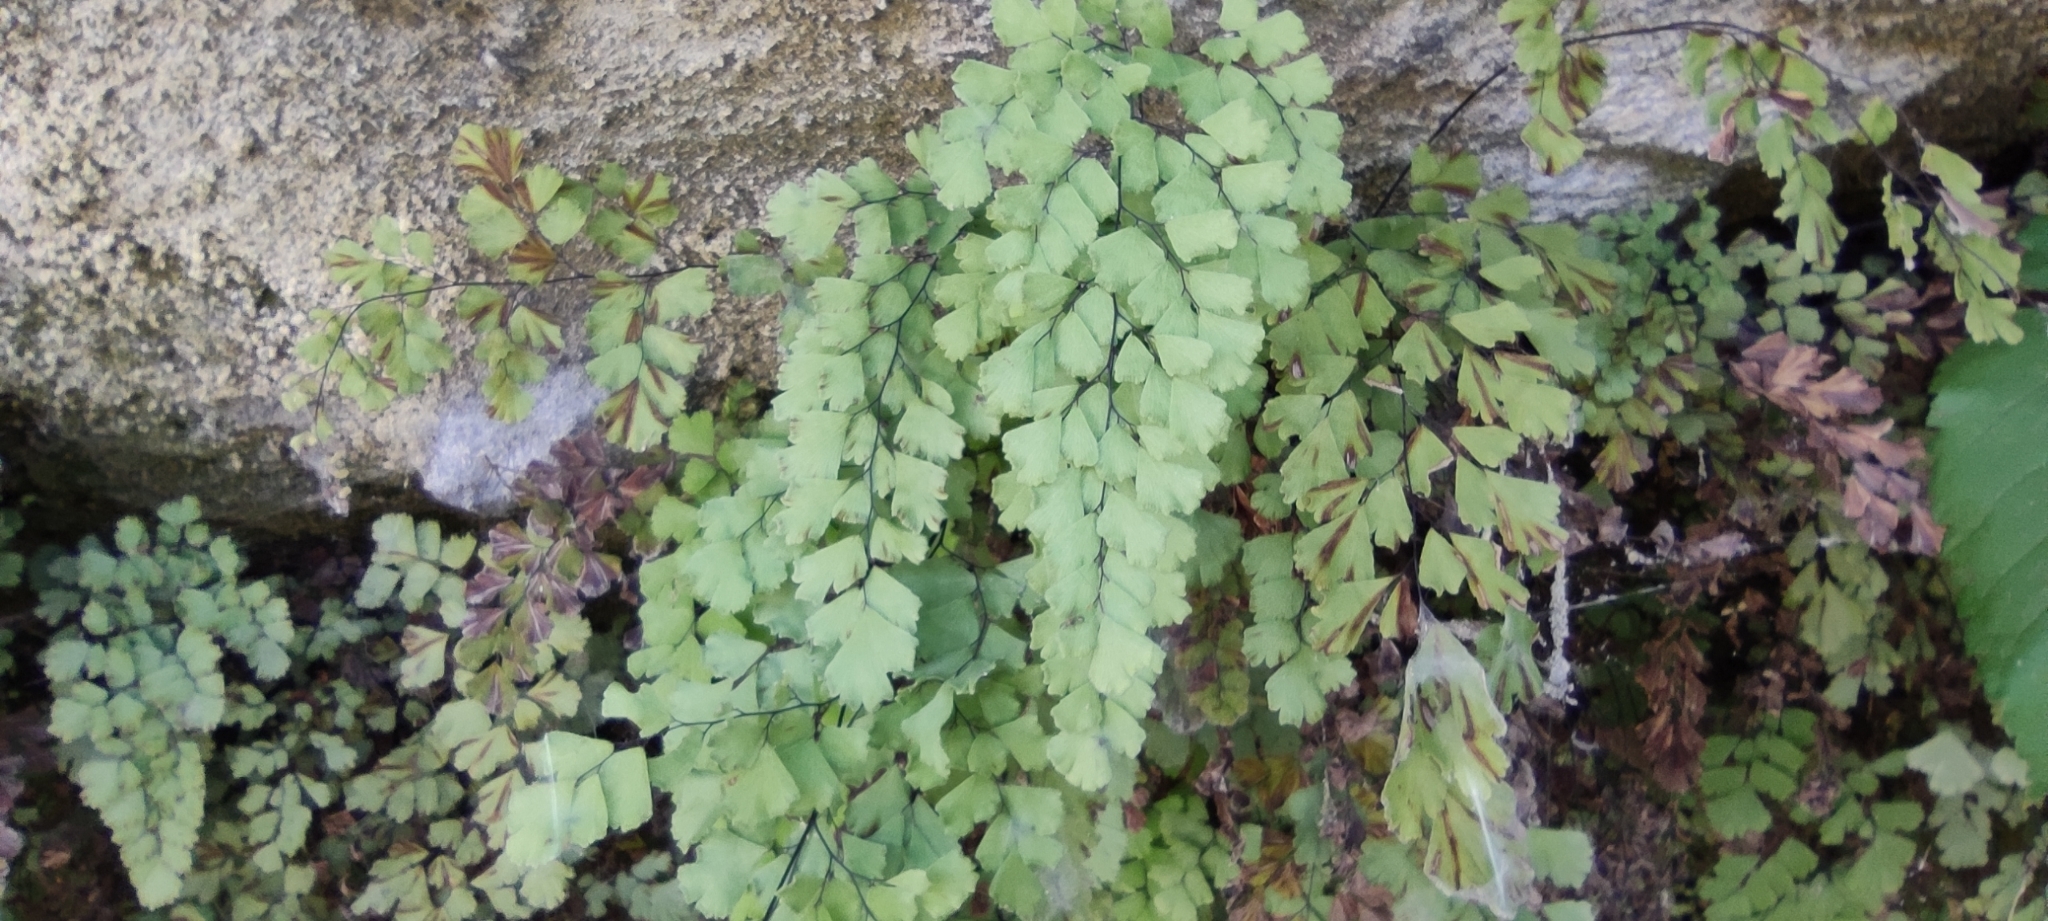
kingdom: Plantae
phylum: Tracheophyta
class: Polypodiopsida
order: Polypodiales
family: Pteridaceae
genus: Adiantum
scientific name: Adiantum capillus-veneris
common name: Maidenhair fern
